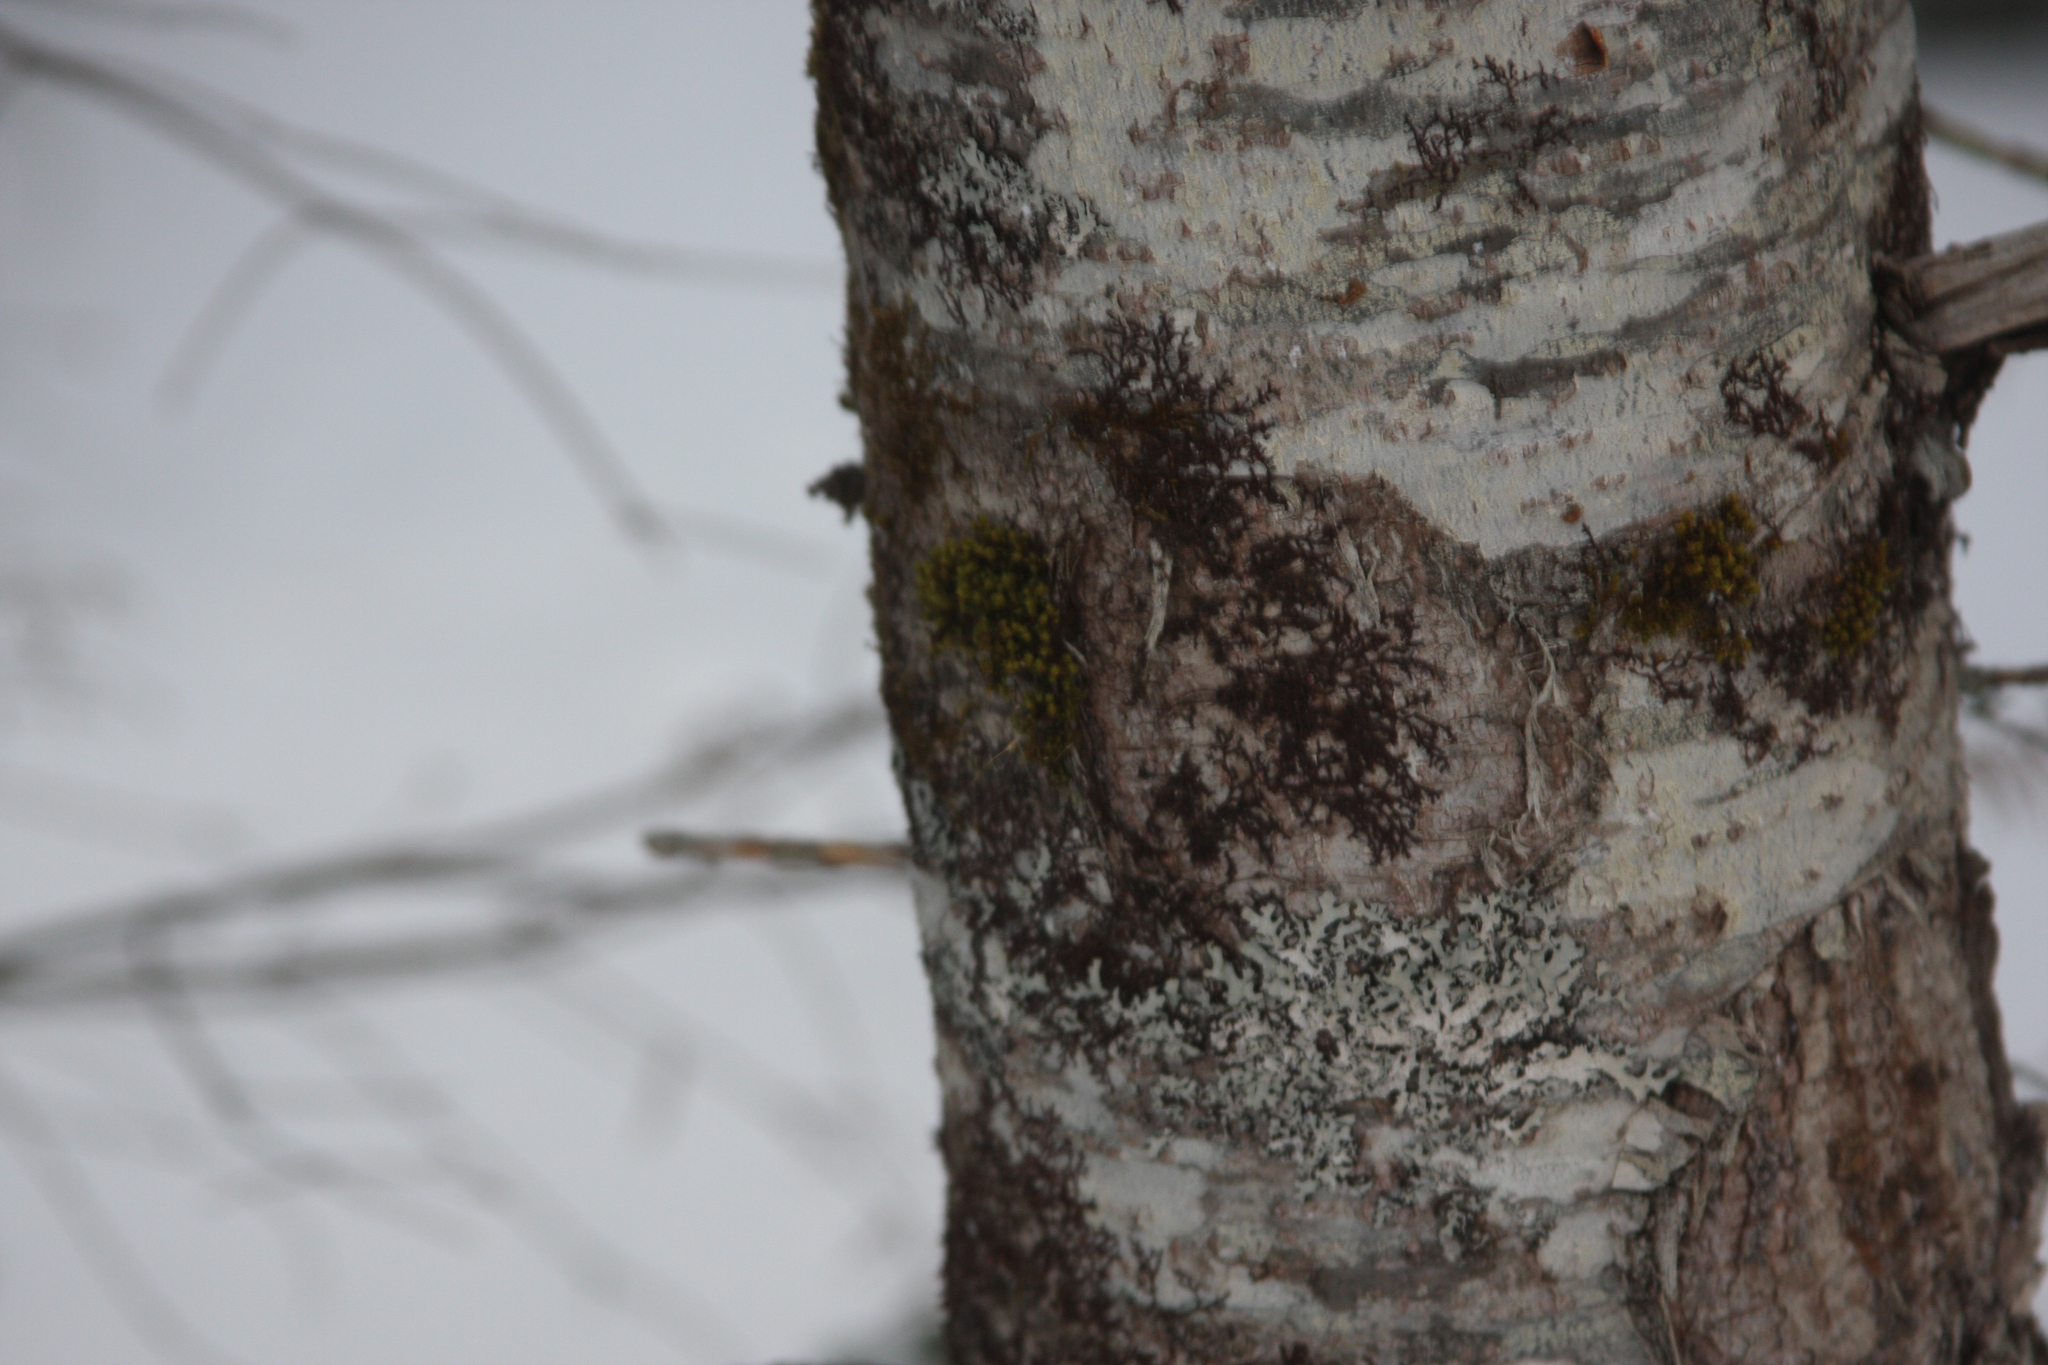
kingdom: Plantae
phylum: Bryophyta
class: Bryopsida
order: Orthotrichales
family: Orthotrichaceae
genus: Ulota
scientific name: Ulota crispa
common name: Crisped pincushion moss
